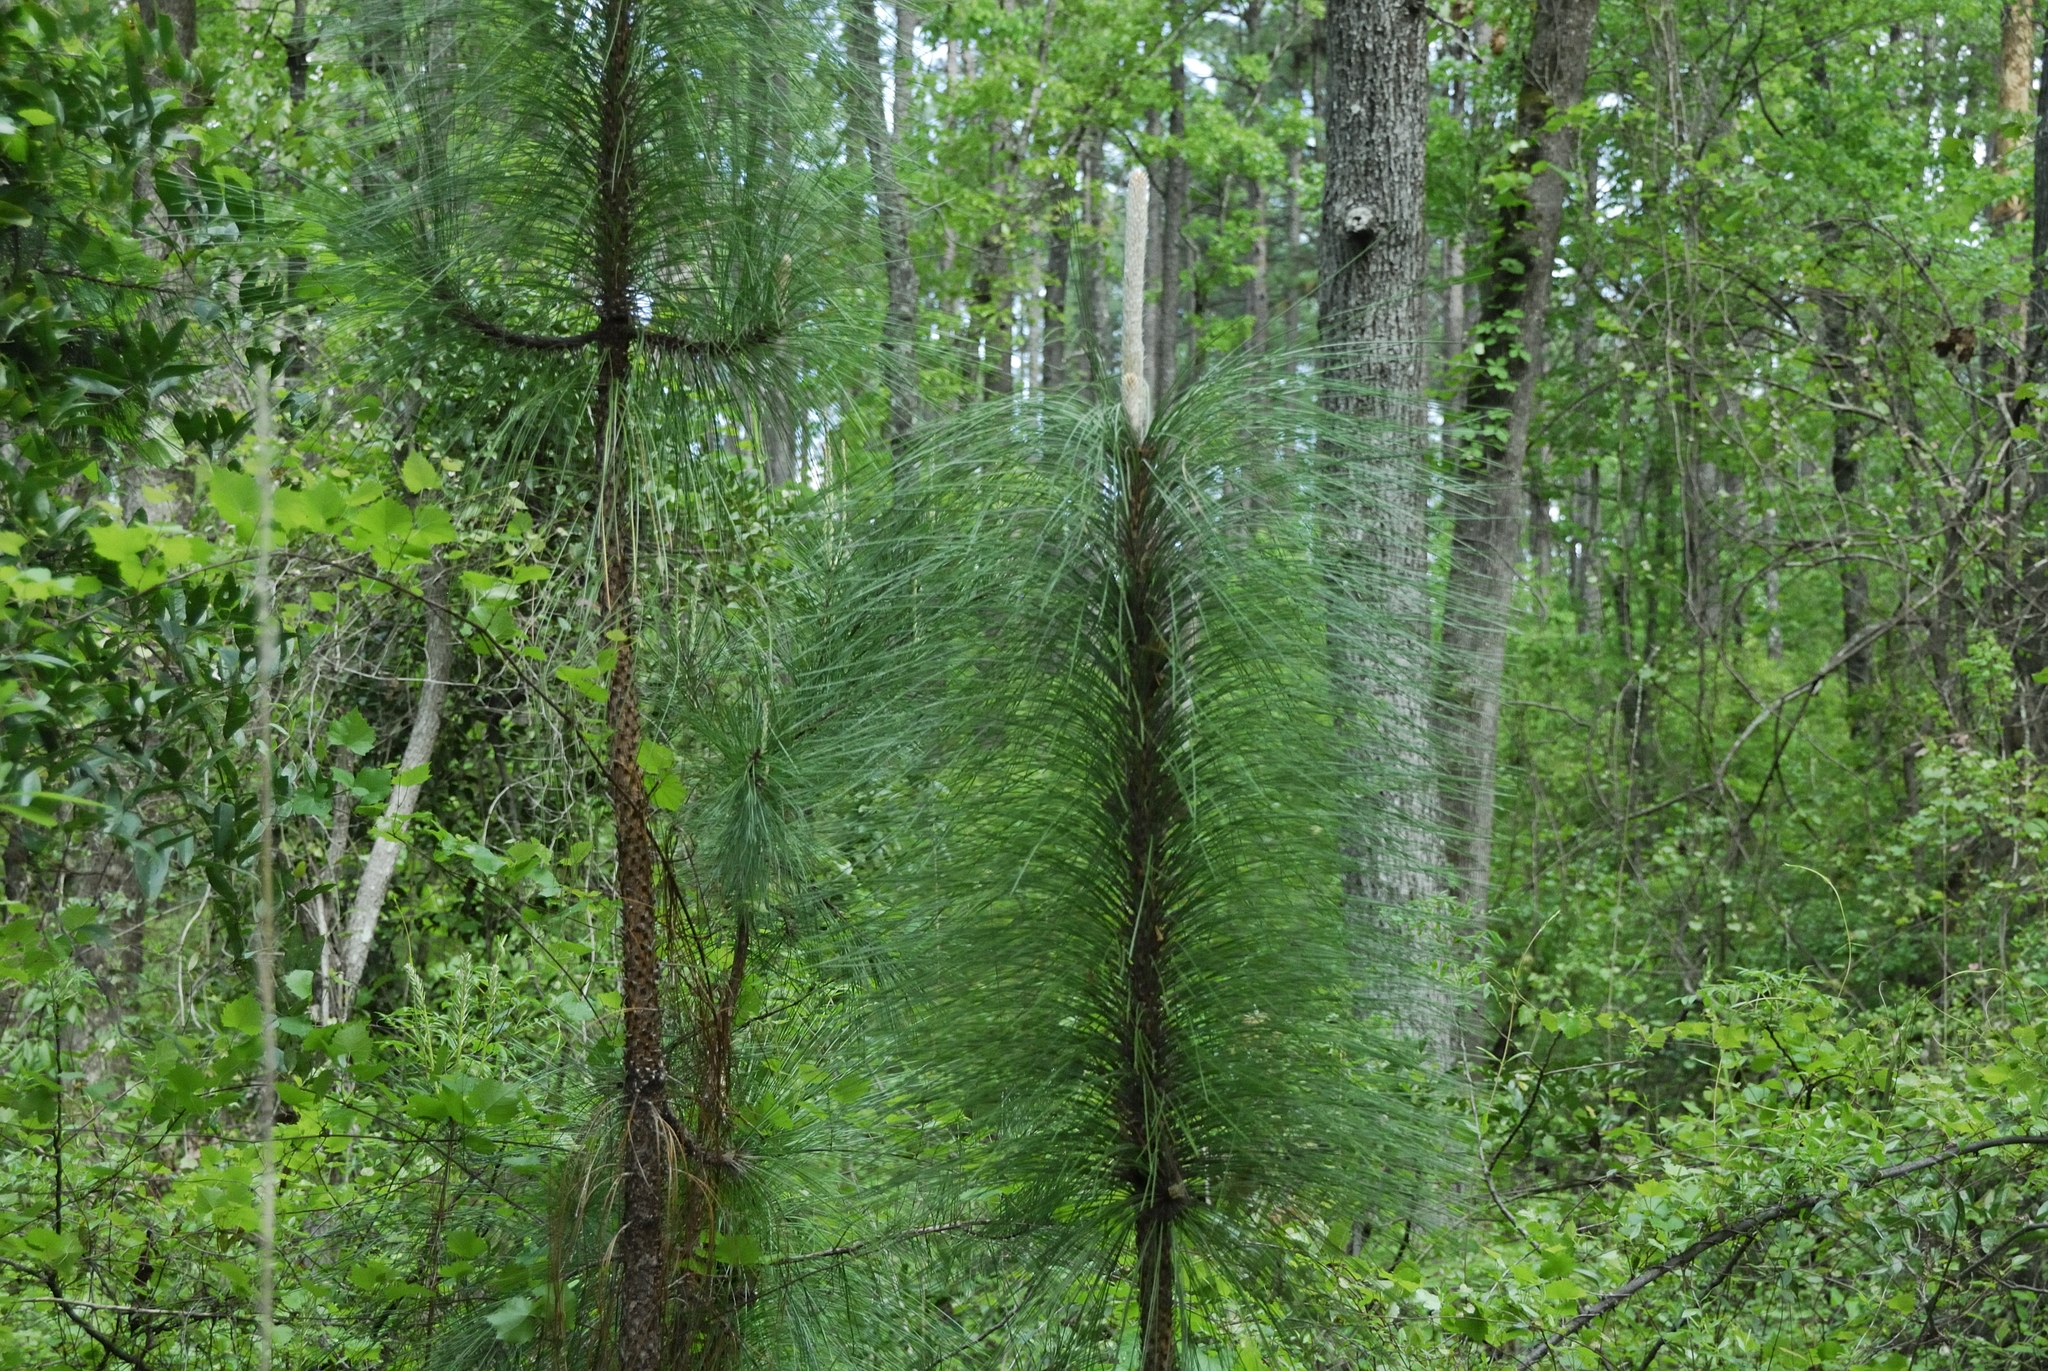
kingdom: Plantae
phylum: Tracheophyta
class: Pinopsida
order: Pinales
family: Pinaceae
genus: Pinus
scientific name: Pinus palustris
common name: Longleaf pine
